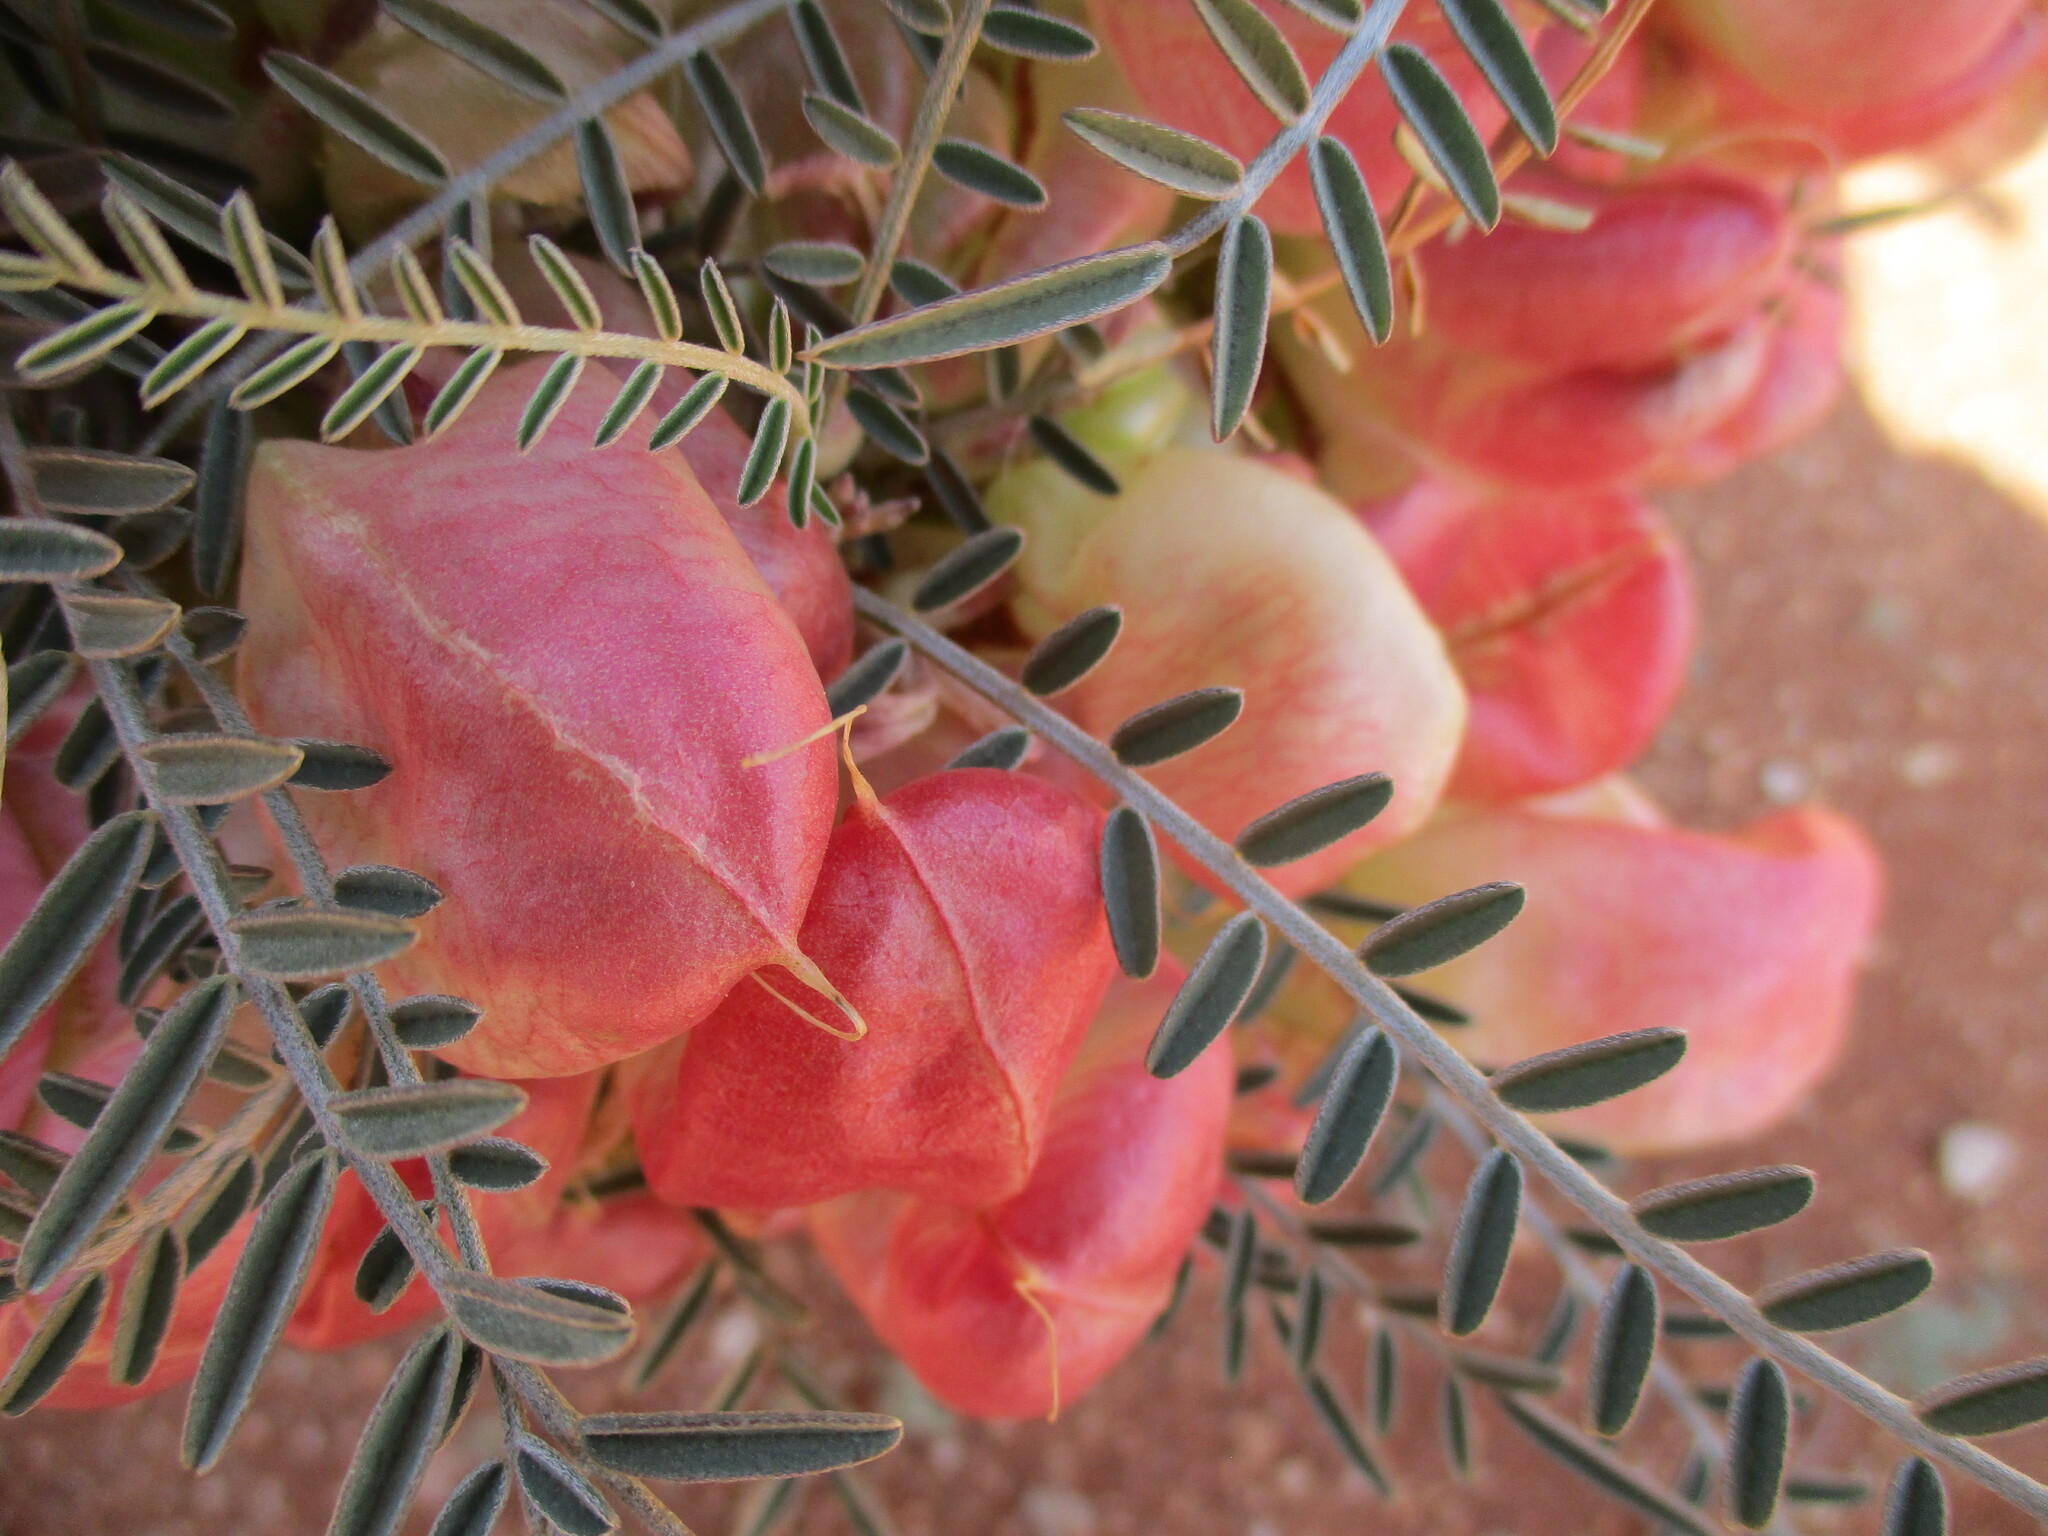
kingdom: Plantae
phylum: Tracheophyta
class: Magnoliopsida
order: Fabales
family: Fabaceae
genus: Lessertia
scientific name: Lessertia frutescens
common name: Balloon-pea
